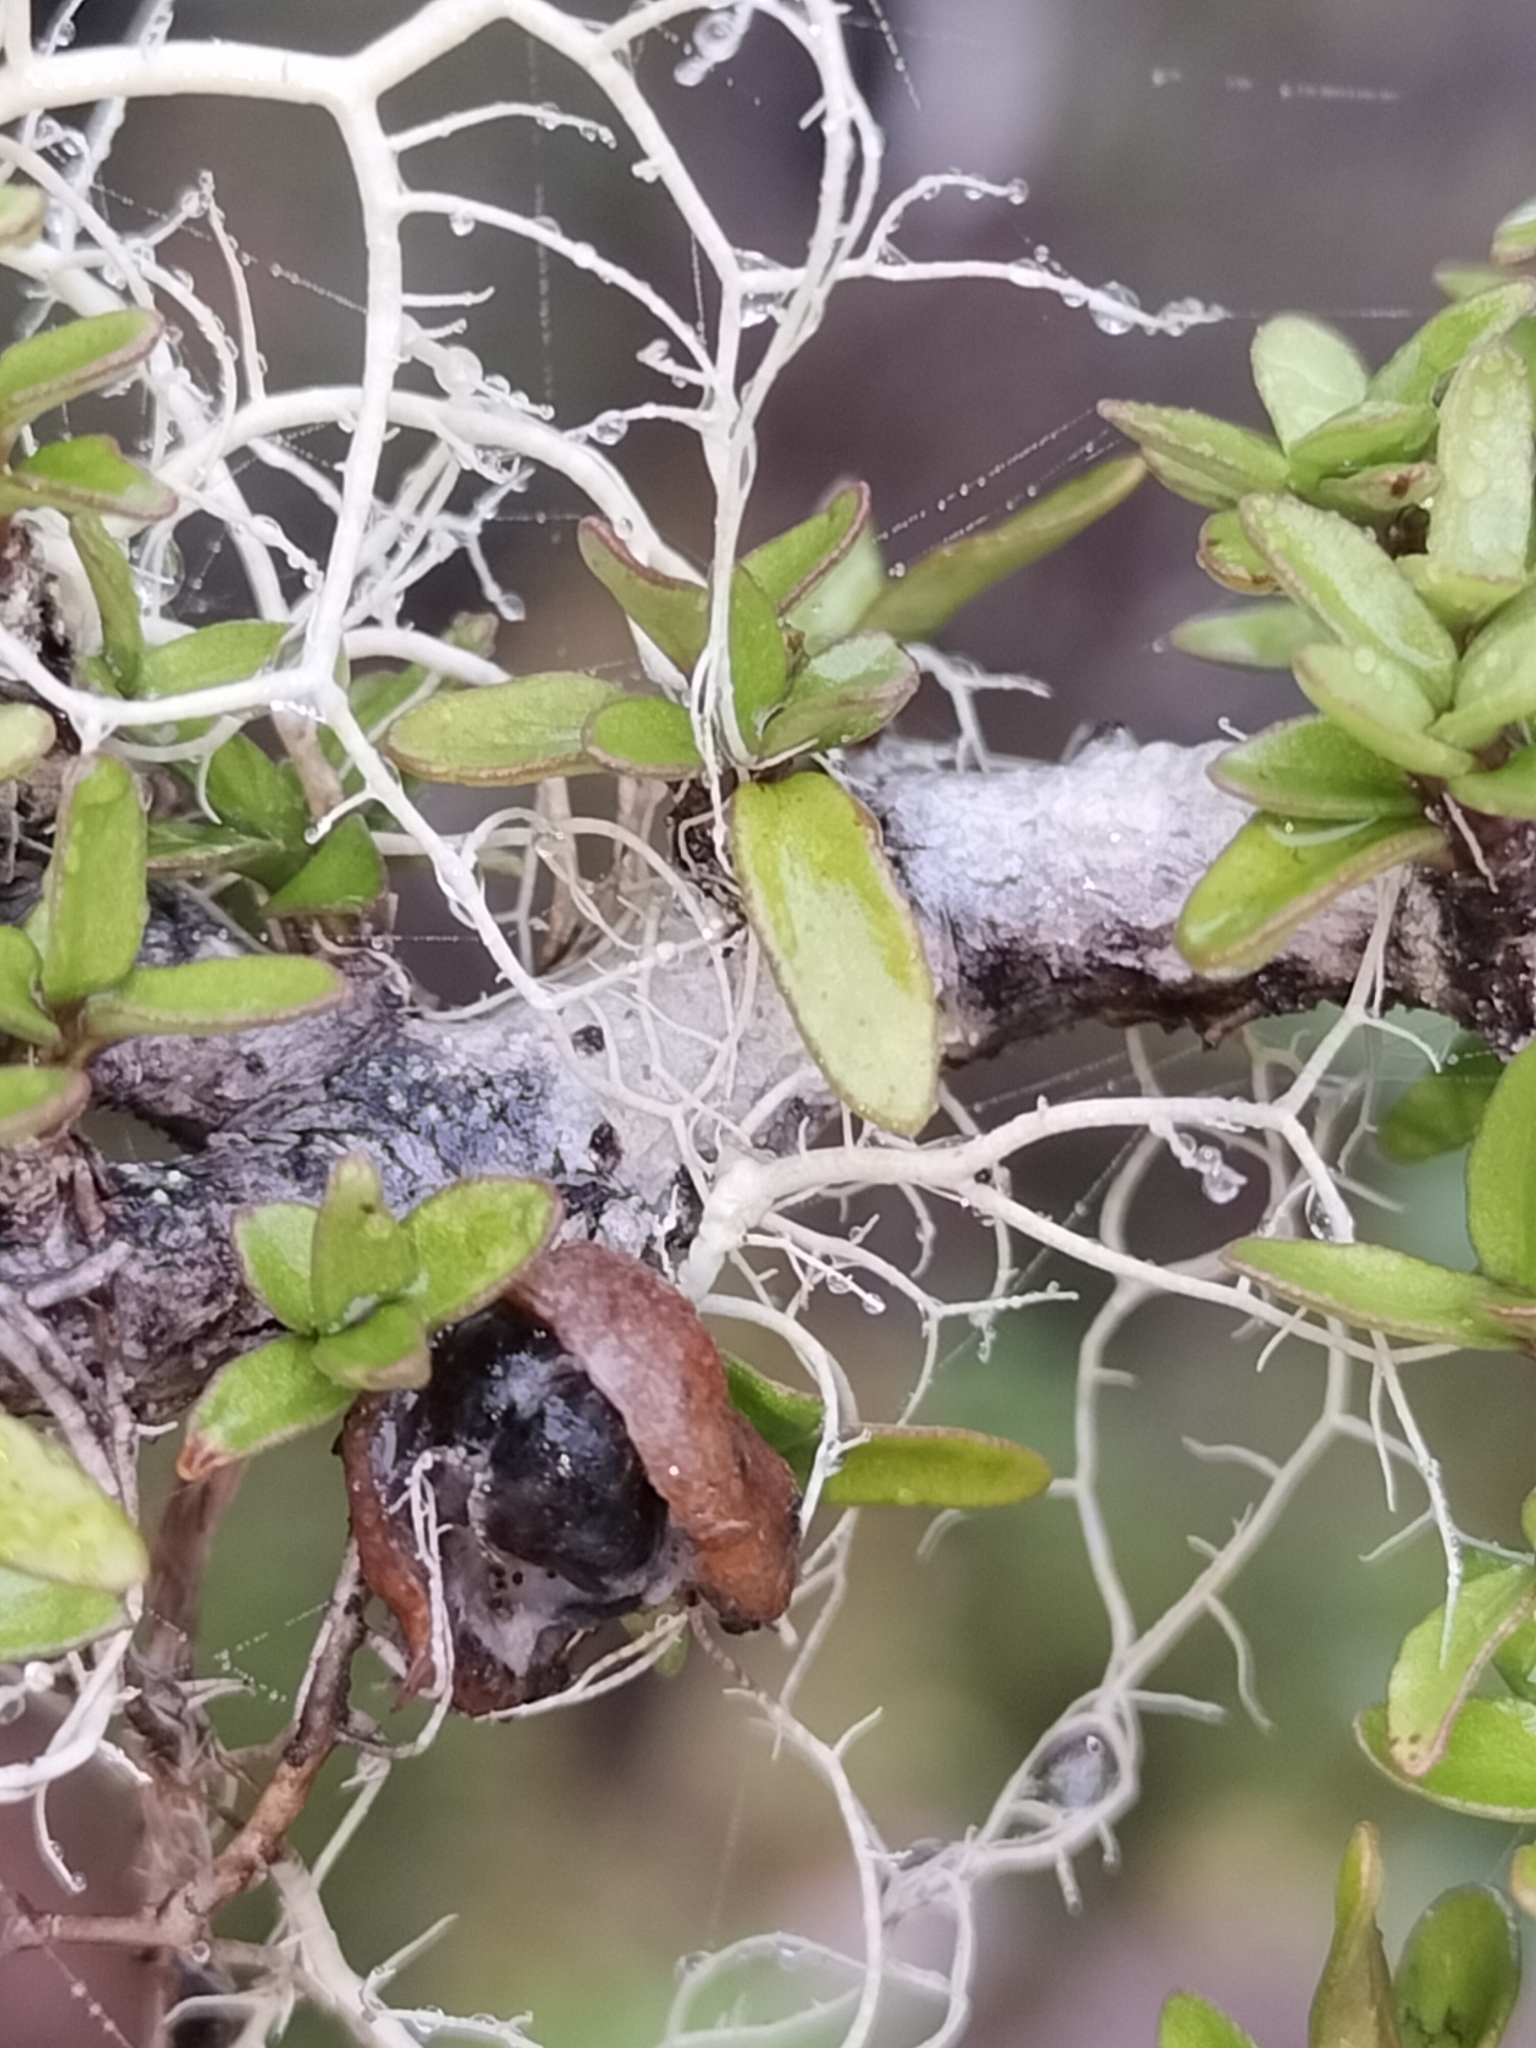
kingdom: Plantae
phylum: Tracheophyta
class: Magnoliopsida
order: Apiales
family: Pittosporaceae
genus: Pittosporum
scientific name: Pittosporum rigidum
